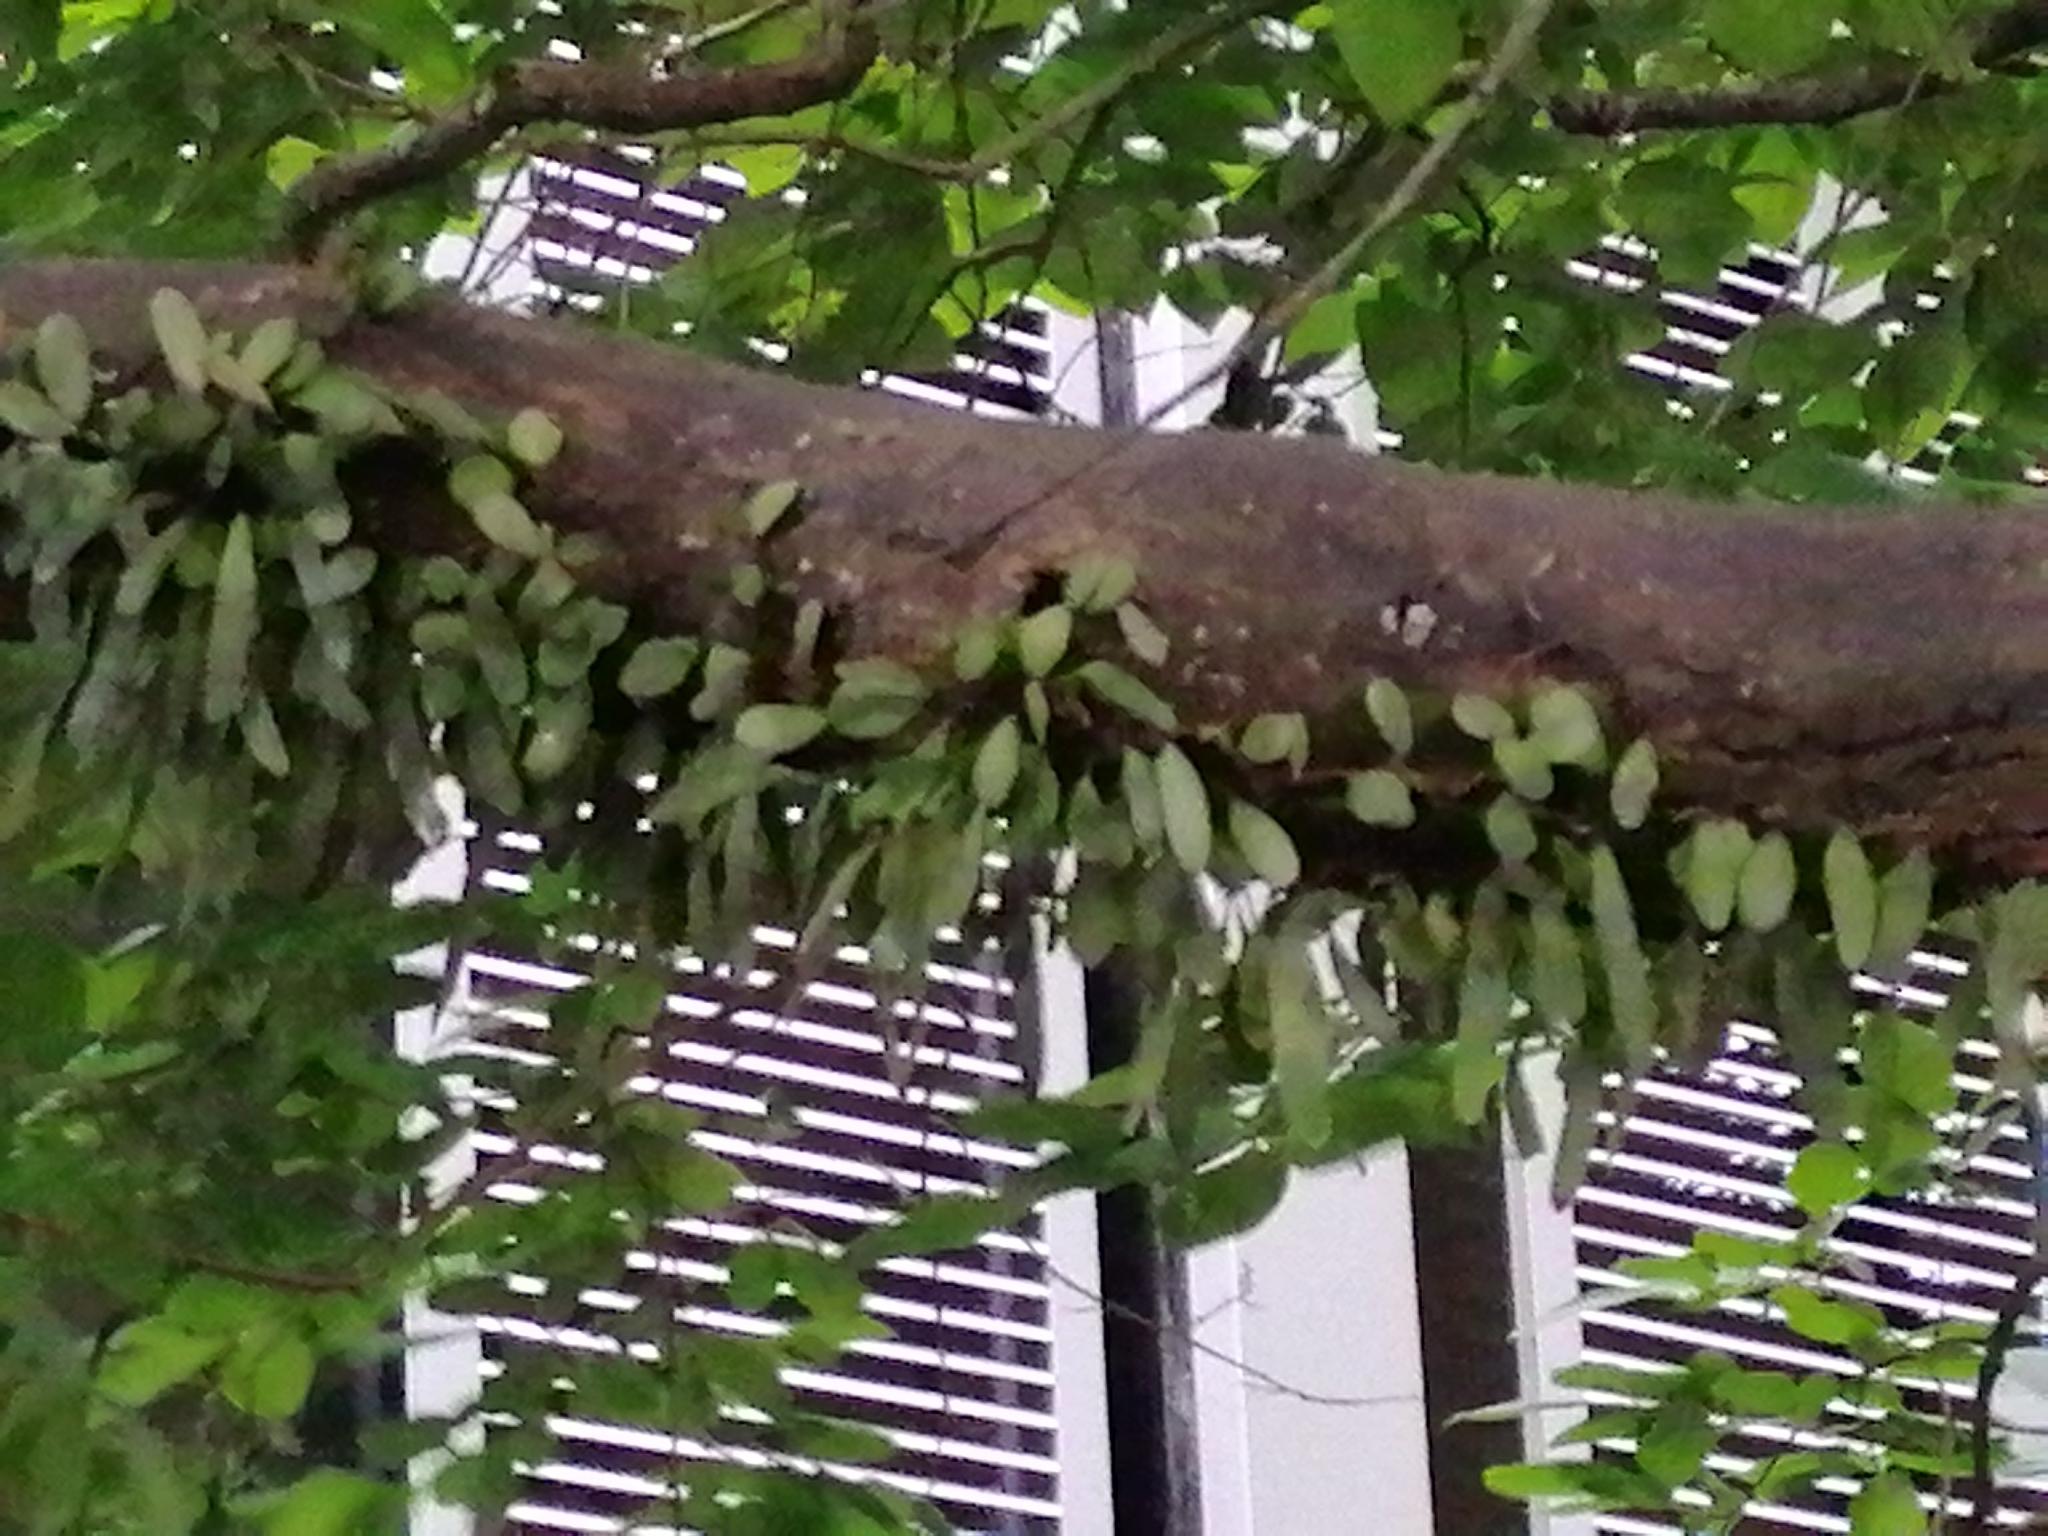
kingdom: Plantae
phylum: Tracheophyta
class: Polypodiopsida
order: Polypodiales
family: Polypodiaceae
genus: Pyrrosia
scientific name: Pyrrosia eleagnifolia
